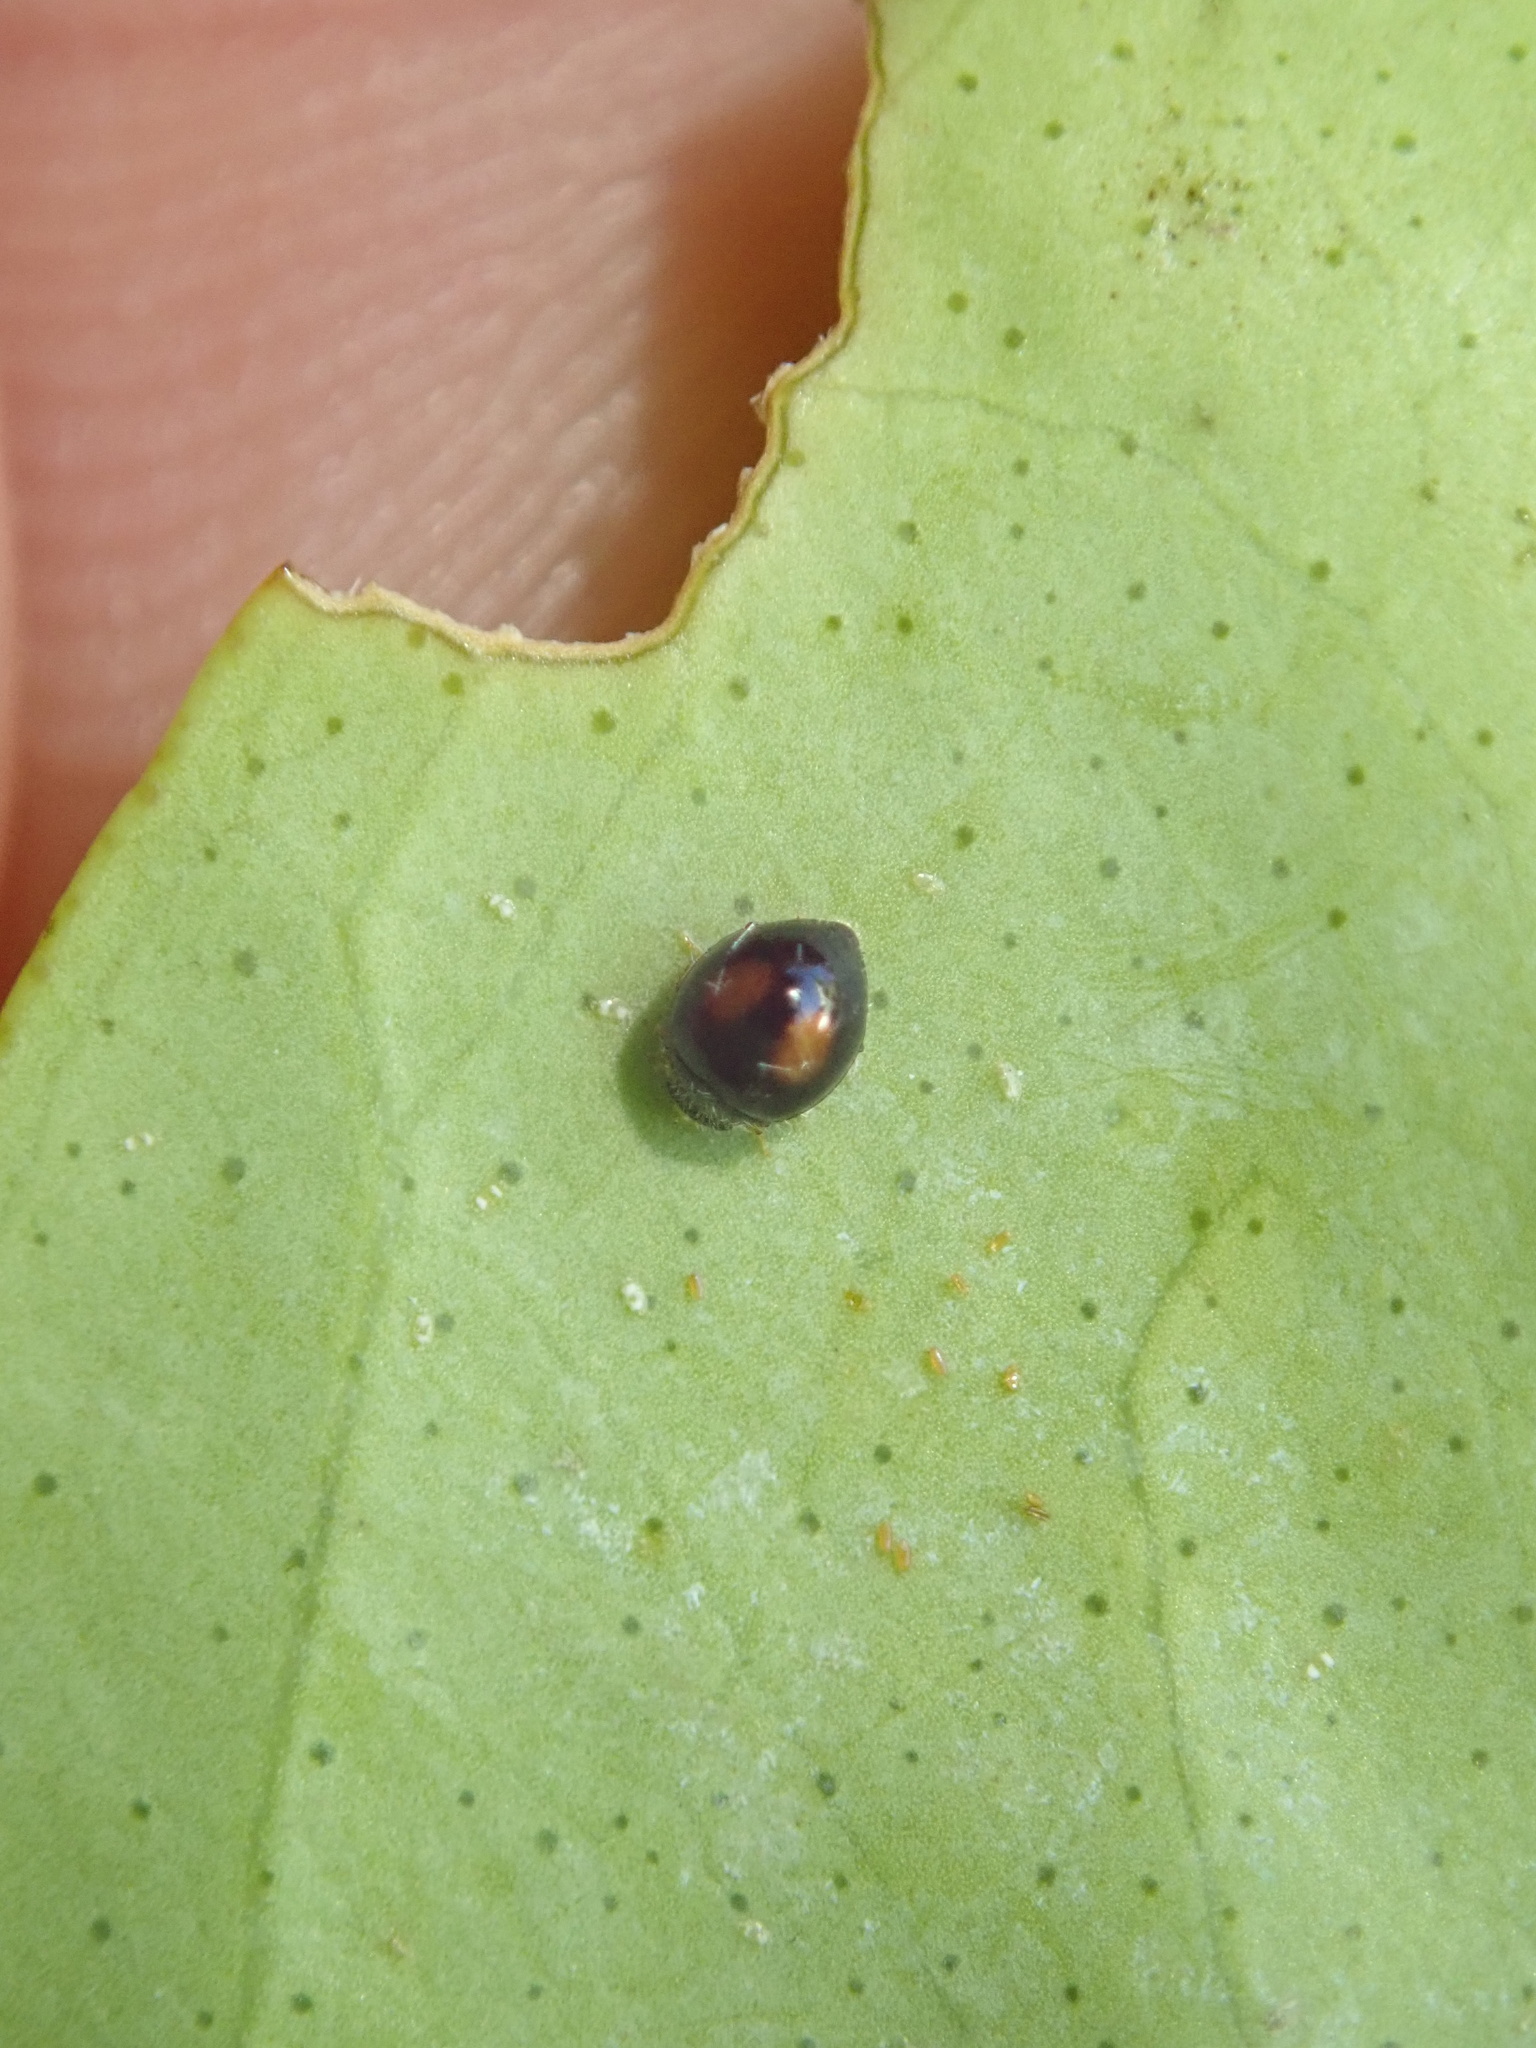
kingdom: Animalia
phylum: Arthropoda
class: Insecta
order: Coleoptera
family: Coccinellidae
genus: Serangium
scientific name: Serangium maculigerum
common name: Lady beetle
